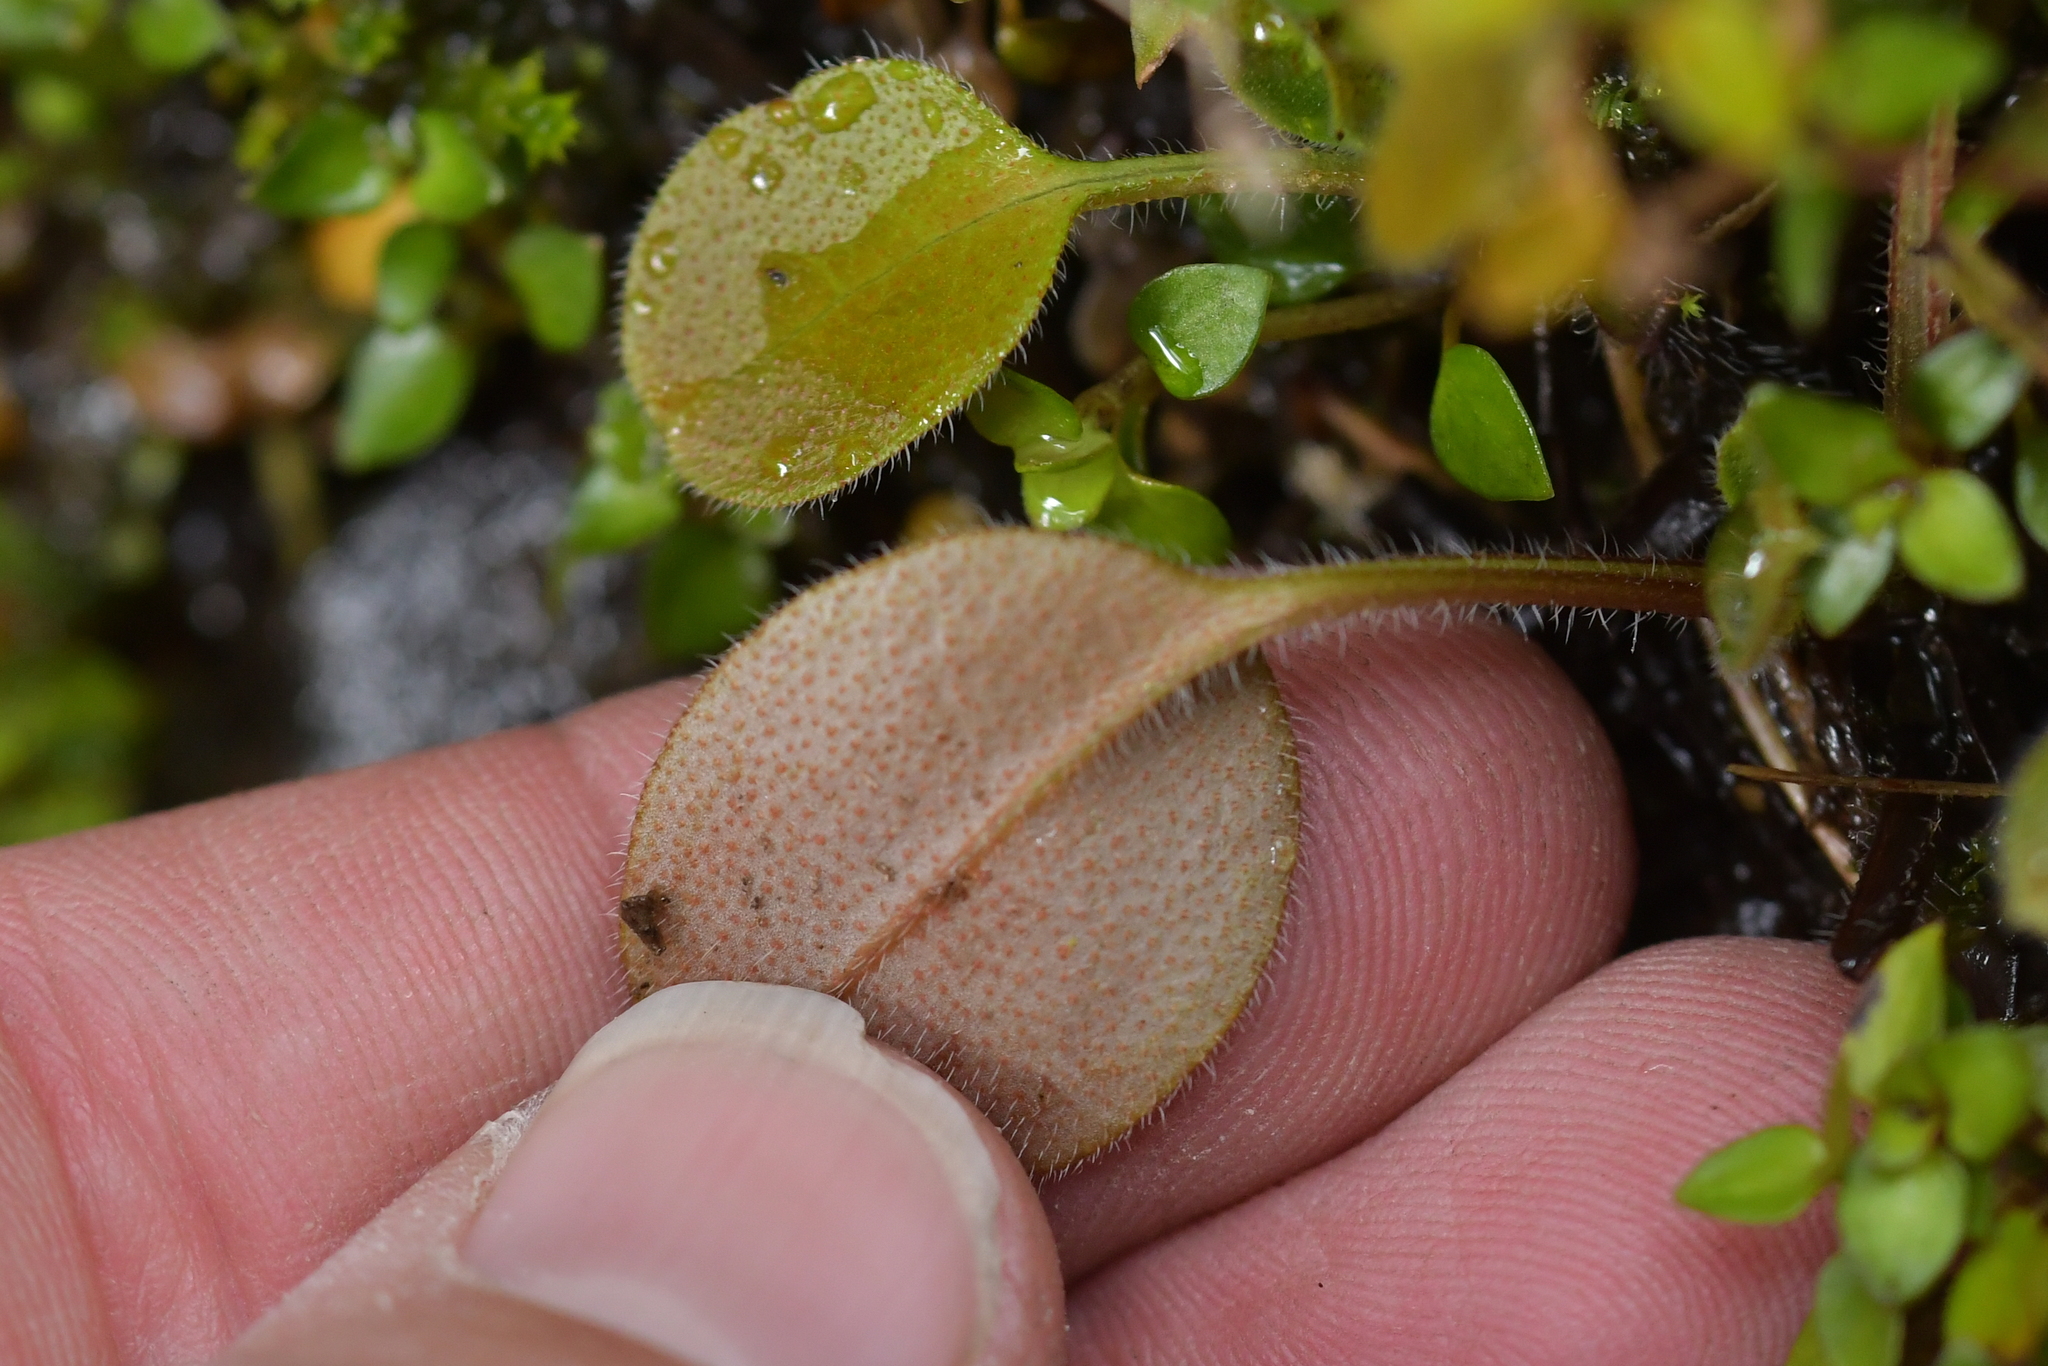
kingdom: Plantae
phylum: Tracheophyta
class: Magnoliopsida
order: Boraginales
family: Boraginaceae
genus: Myosotis
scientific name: Myosotis forsteri
